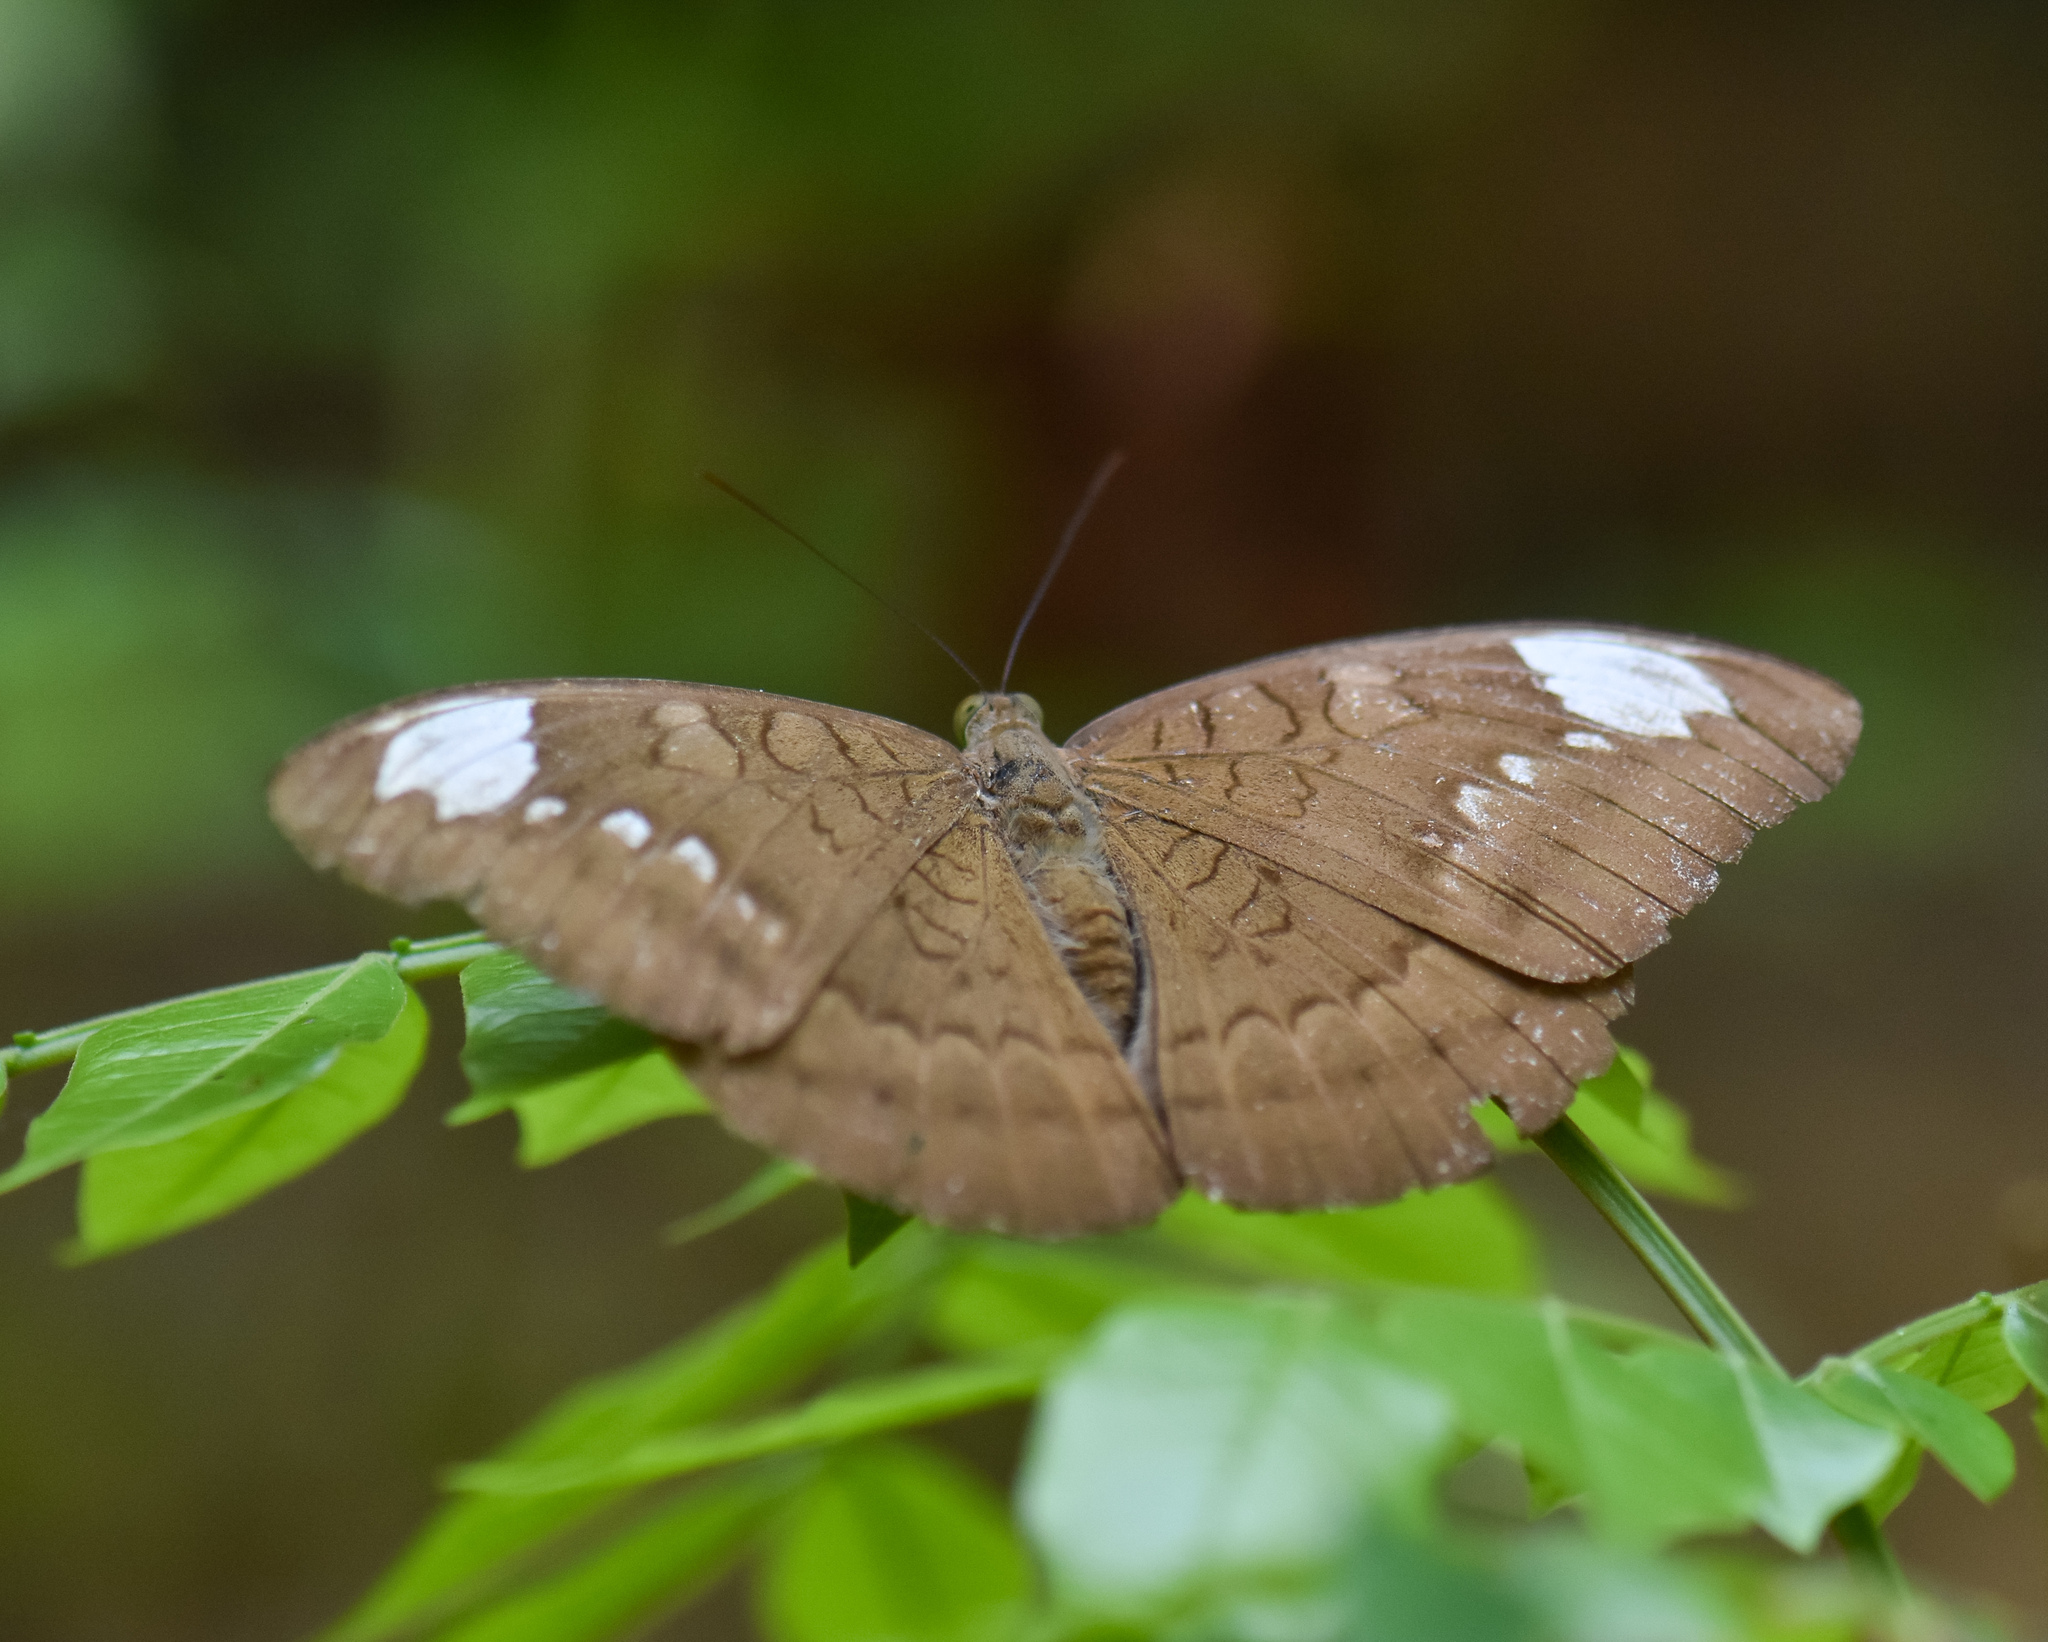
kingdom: Animalia
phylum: Arthropoda
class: Insecta
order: Lepidoptera
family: Nymphalidae
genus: Tanaecia
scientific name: Tanaecia julii
